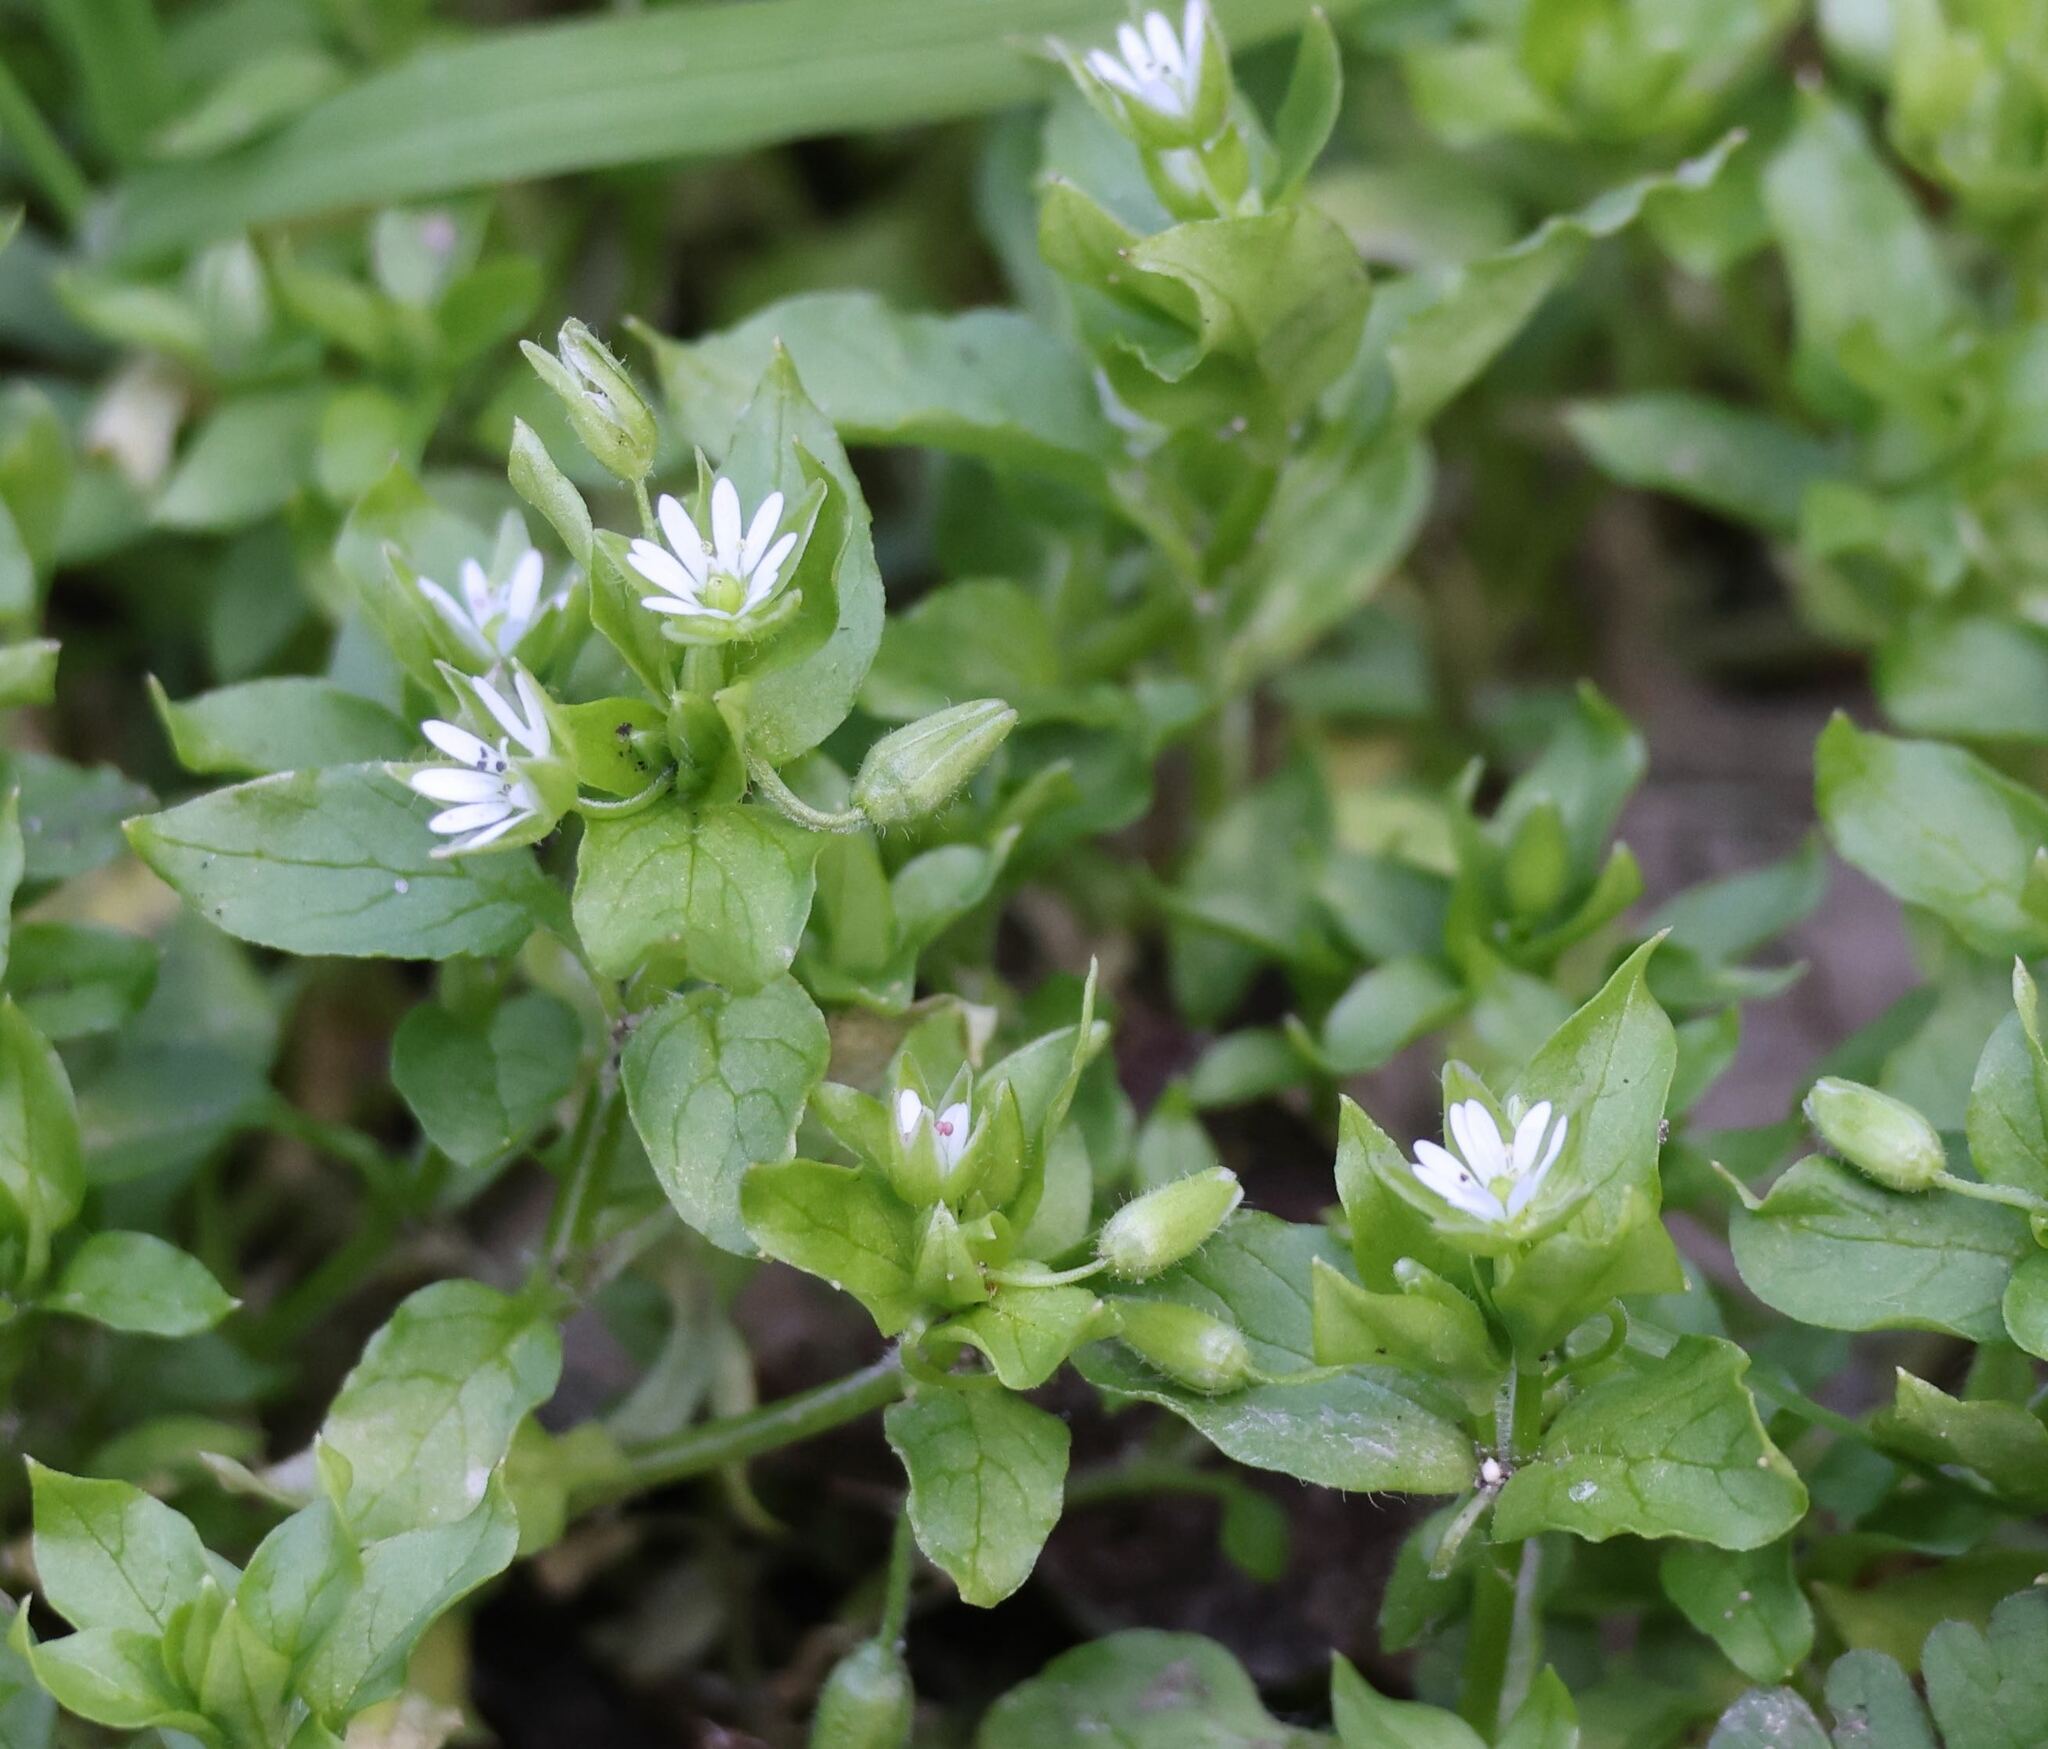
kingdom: Plantae
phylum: Tracheophyta
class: Magnoliopsida
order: Caryophyllales
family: Caryophyllaceae
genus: Stellaria
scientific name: Stellaria media
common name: Common chickweed
